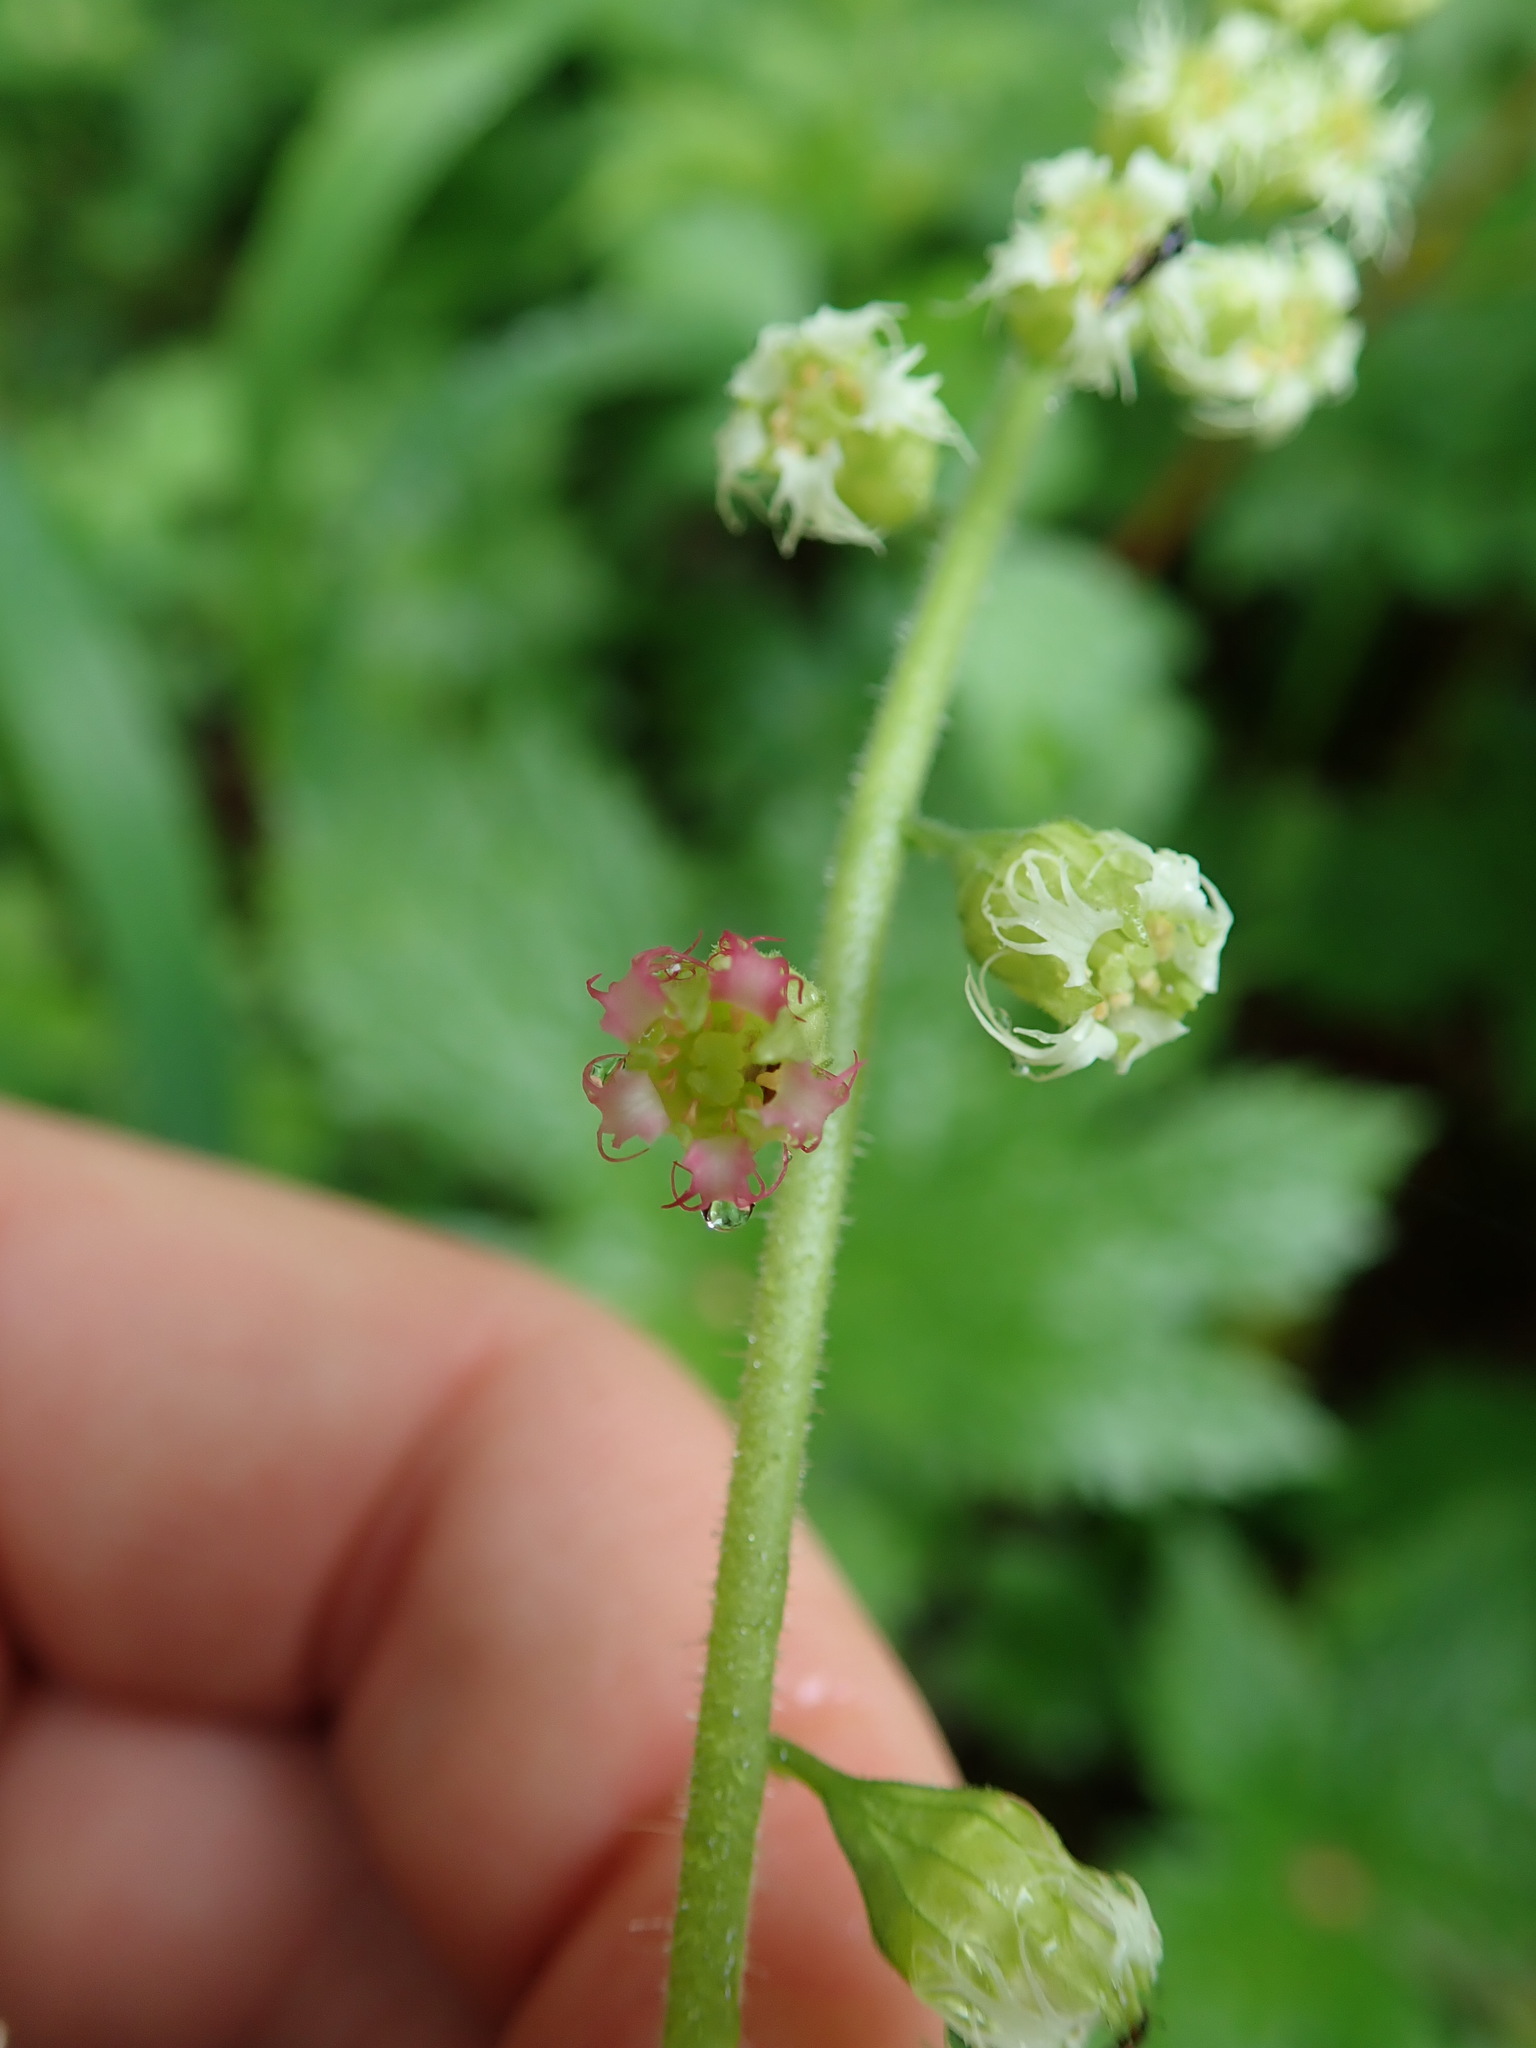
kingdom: Plantae
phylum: Tracheophyta
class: Magnoliopsida
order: Saxifragales
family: Saxifragaceae
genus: Tellima
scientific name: Tellima grandiflora
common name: Fringecups
